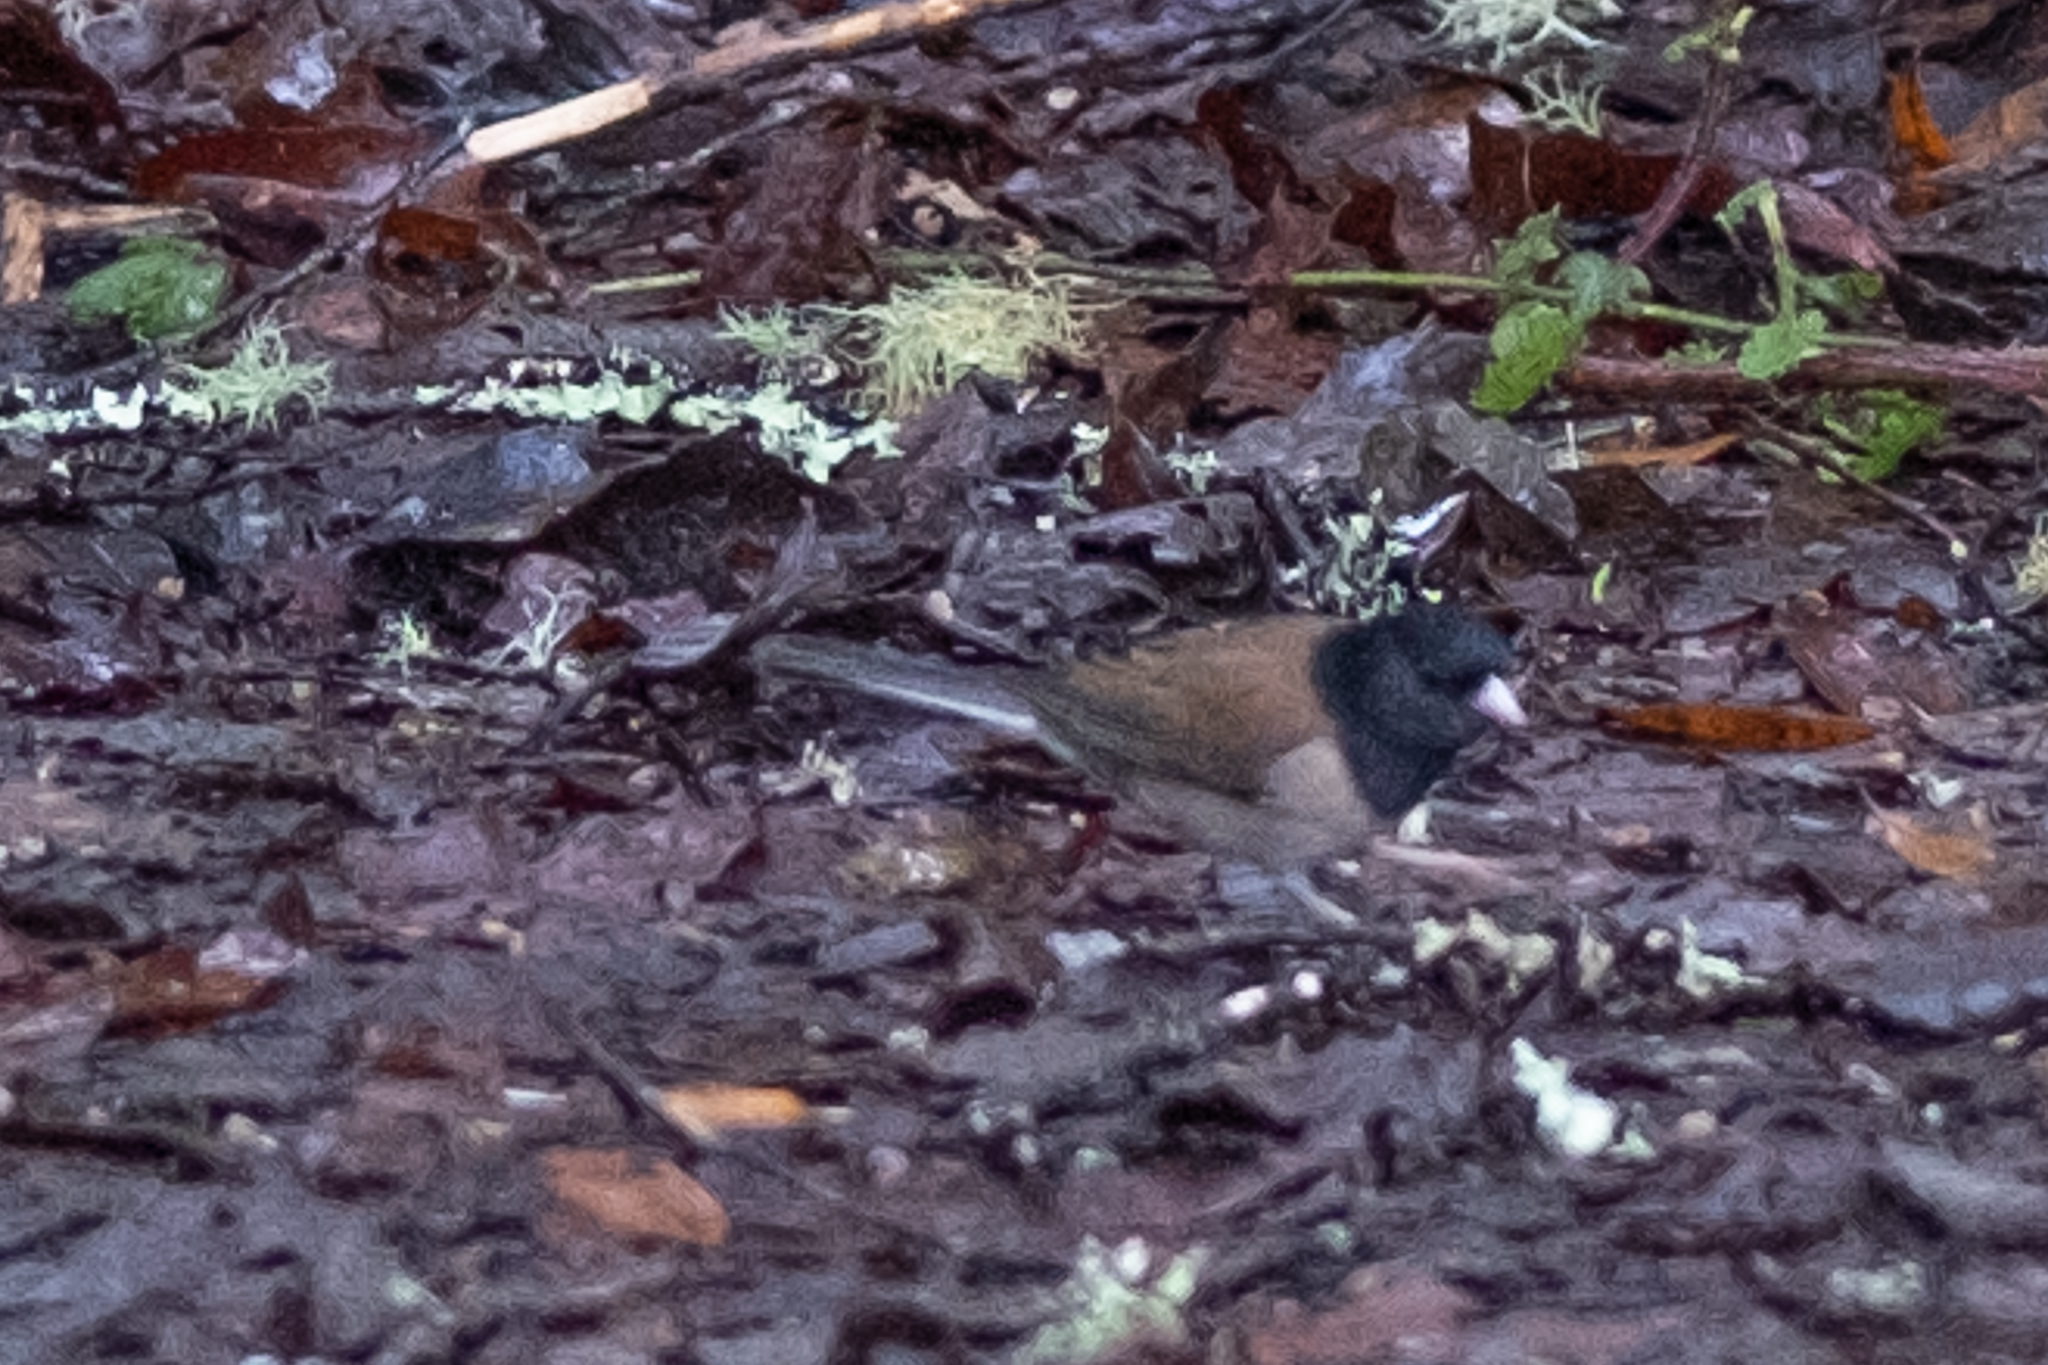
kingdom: Animalia
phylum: Chordata
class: Aves
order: Passeriformes
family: Passerellidae
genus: Junco
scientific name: Junco hyemalis
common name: Dark-eyed junco
